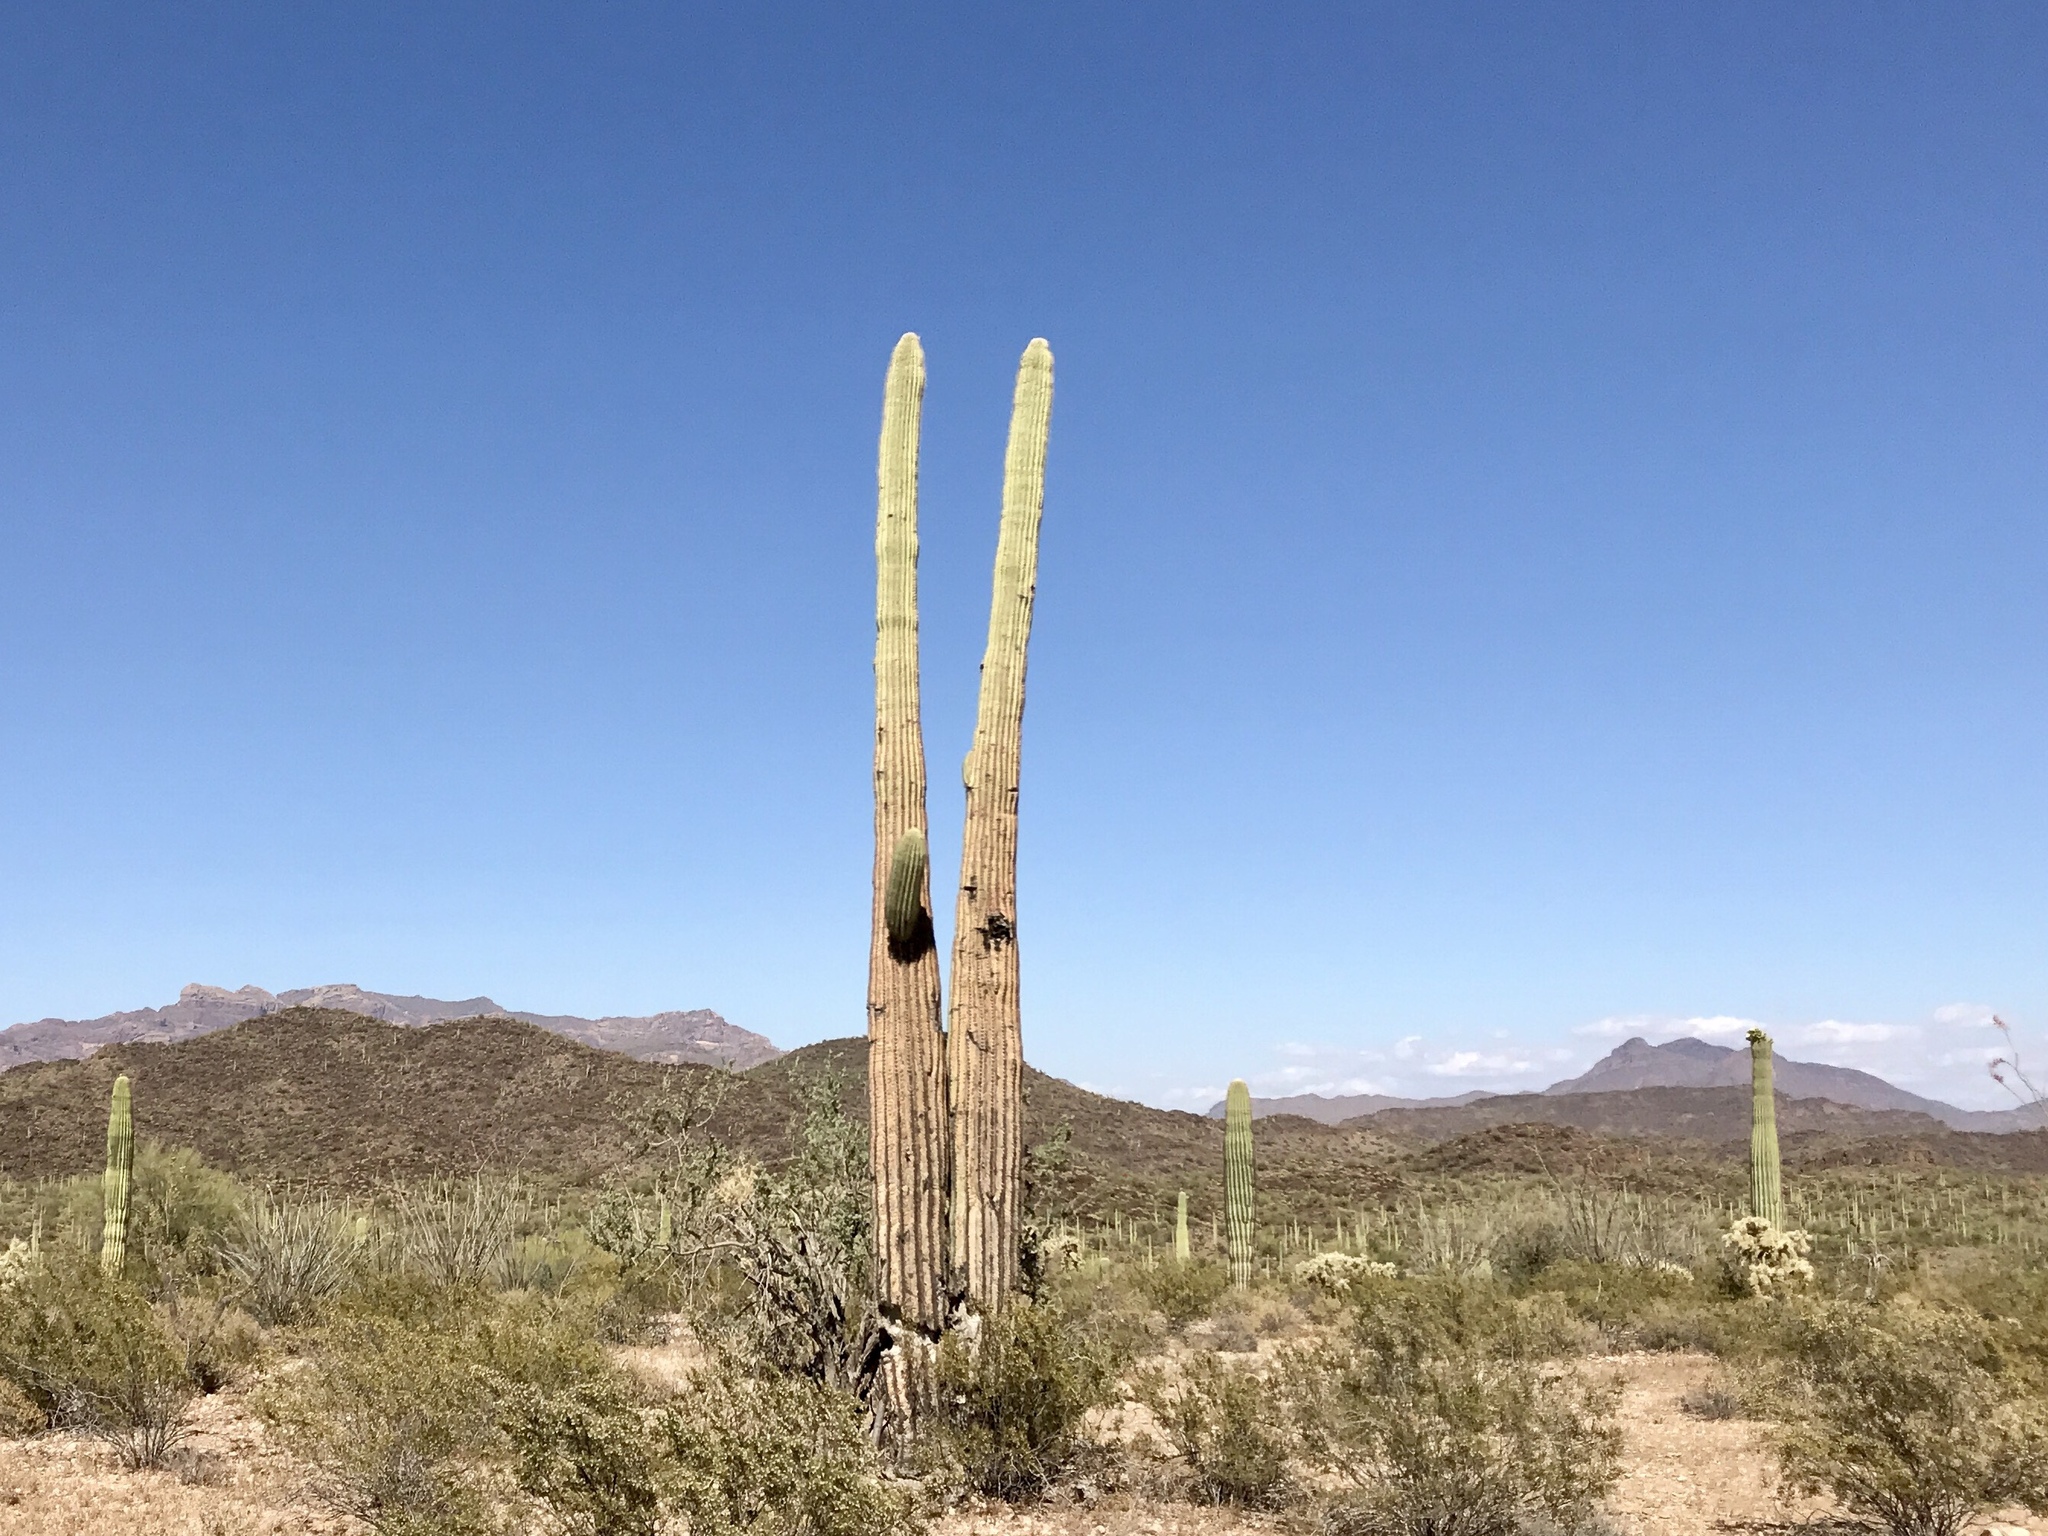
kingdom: Plantae
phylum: Tracheophyta
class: Magnoliopsida
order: Caryophyllales
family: Cactaceae
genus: Carnegiea
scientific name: Carnegiea gigantea
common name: Saguaro
